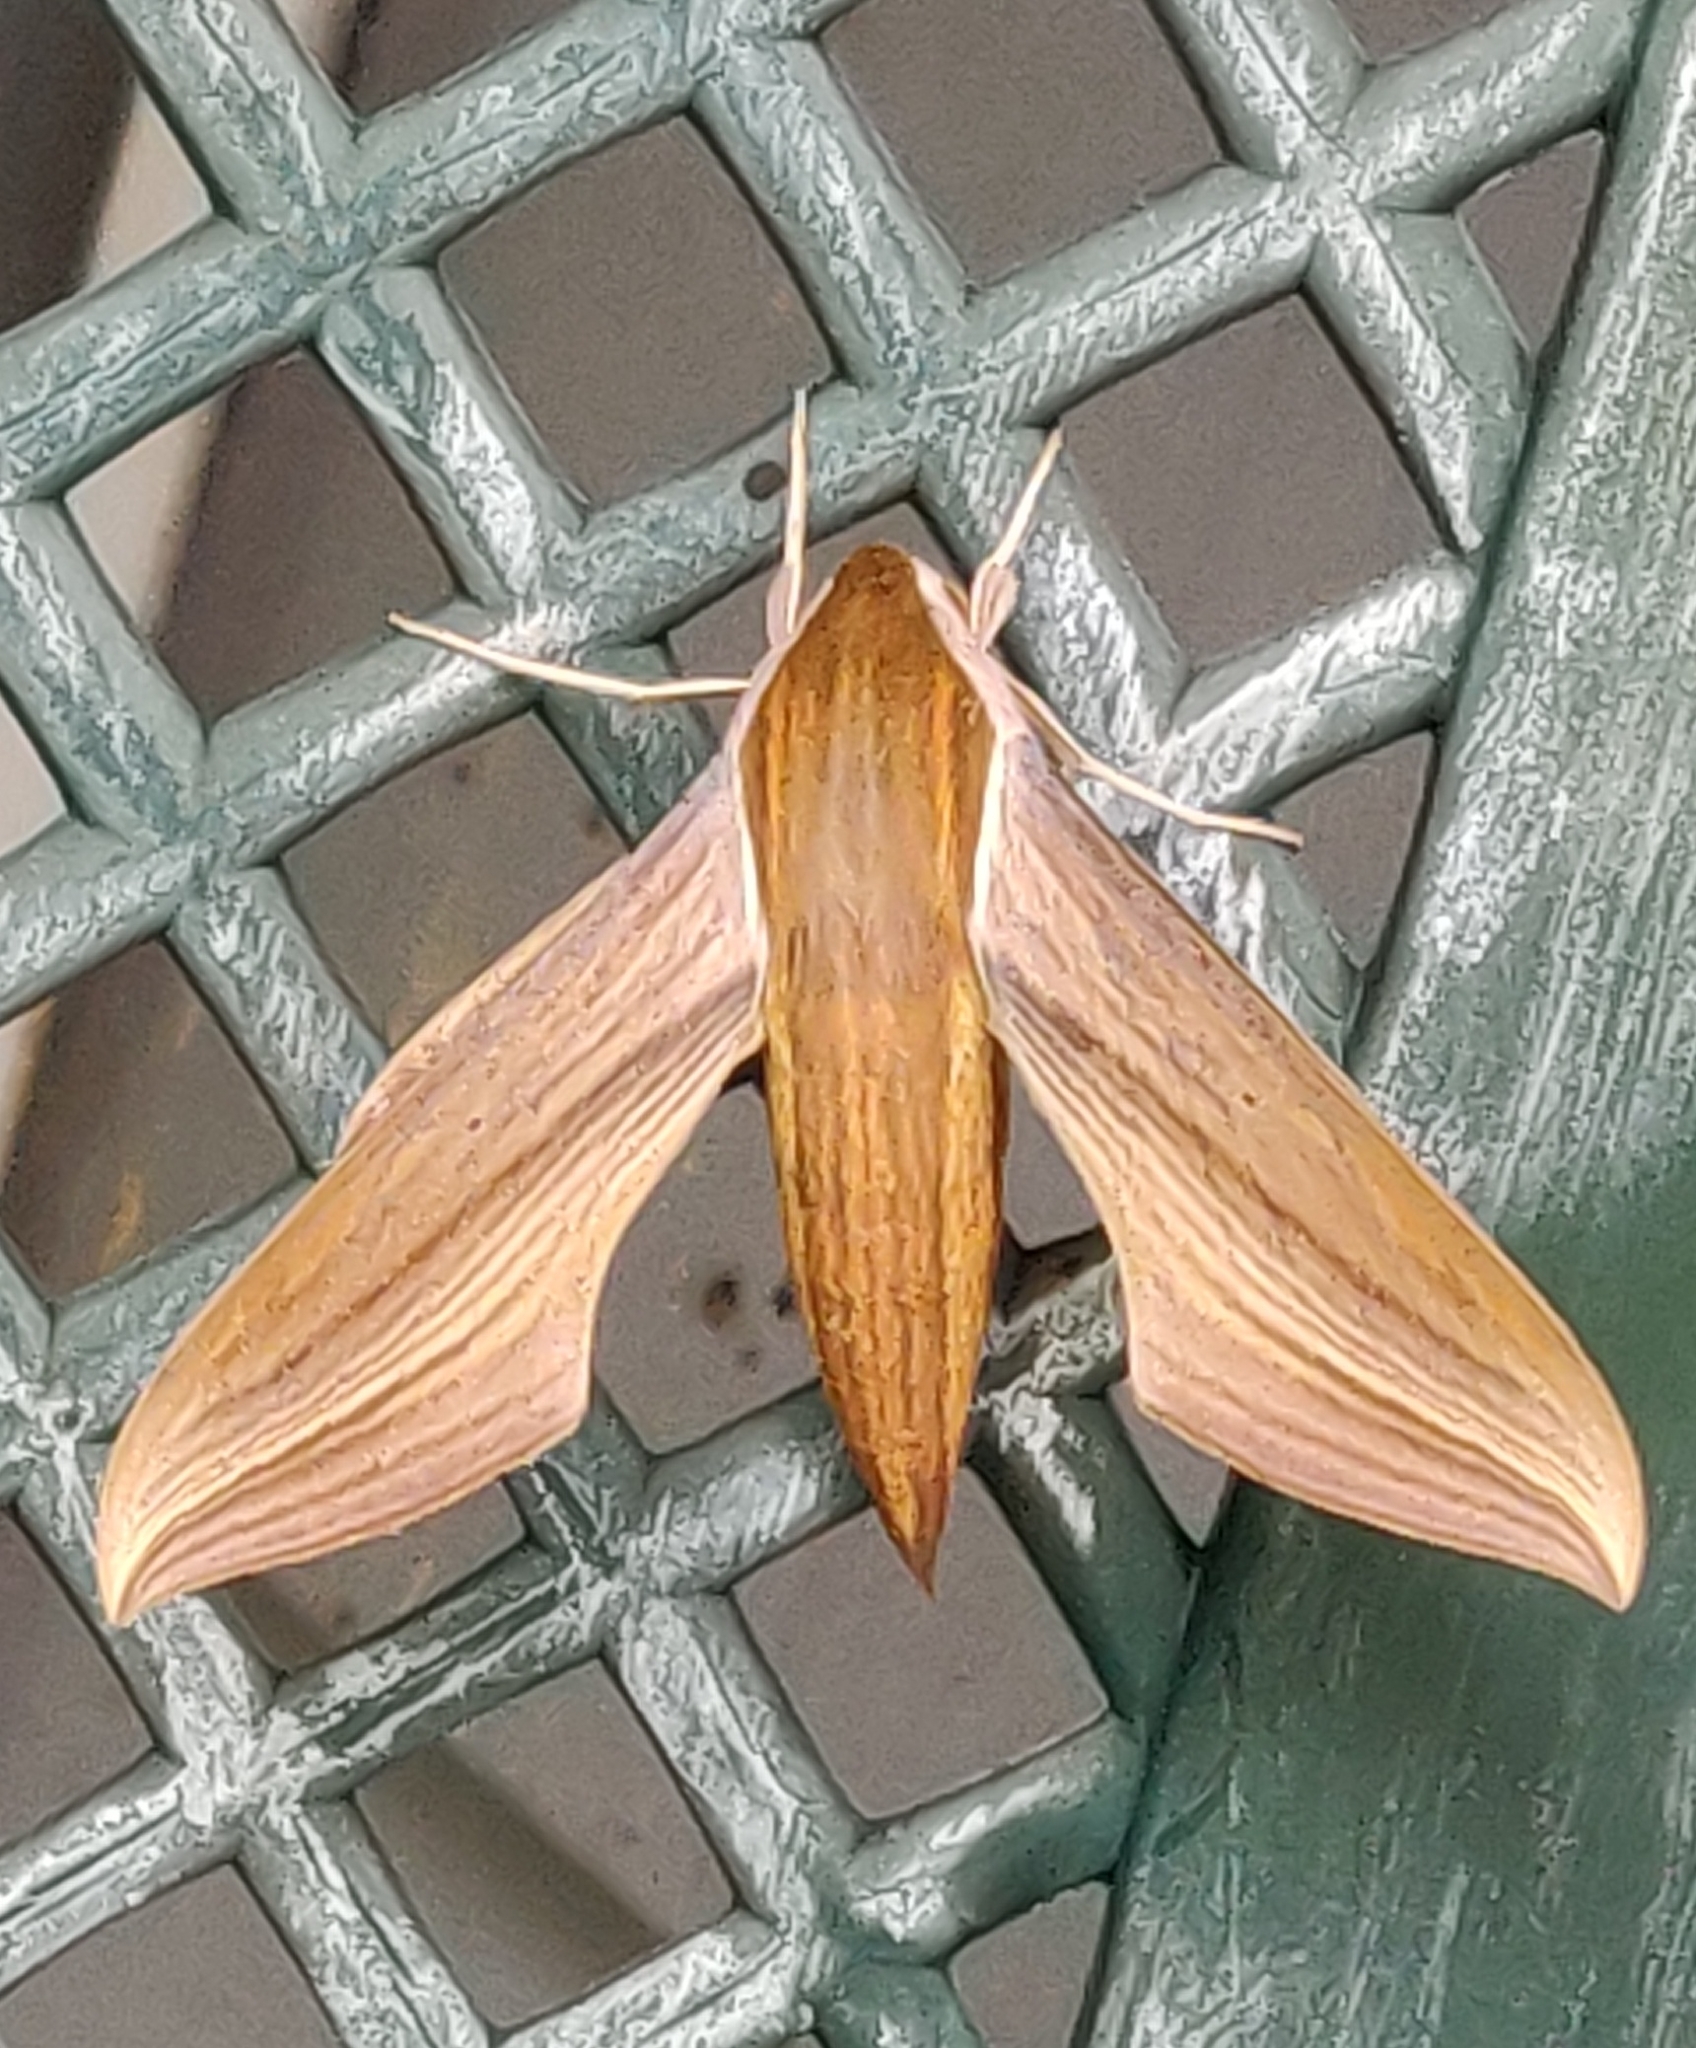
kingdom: Animalia
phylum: Arthropoda
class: Insecta
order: Lepidoptera
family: Sphingidae
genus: Xylophanes
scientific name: Xylophanes tersa
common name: Tersa sphinx
